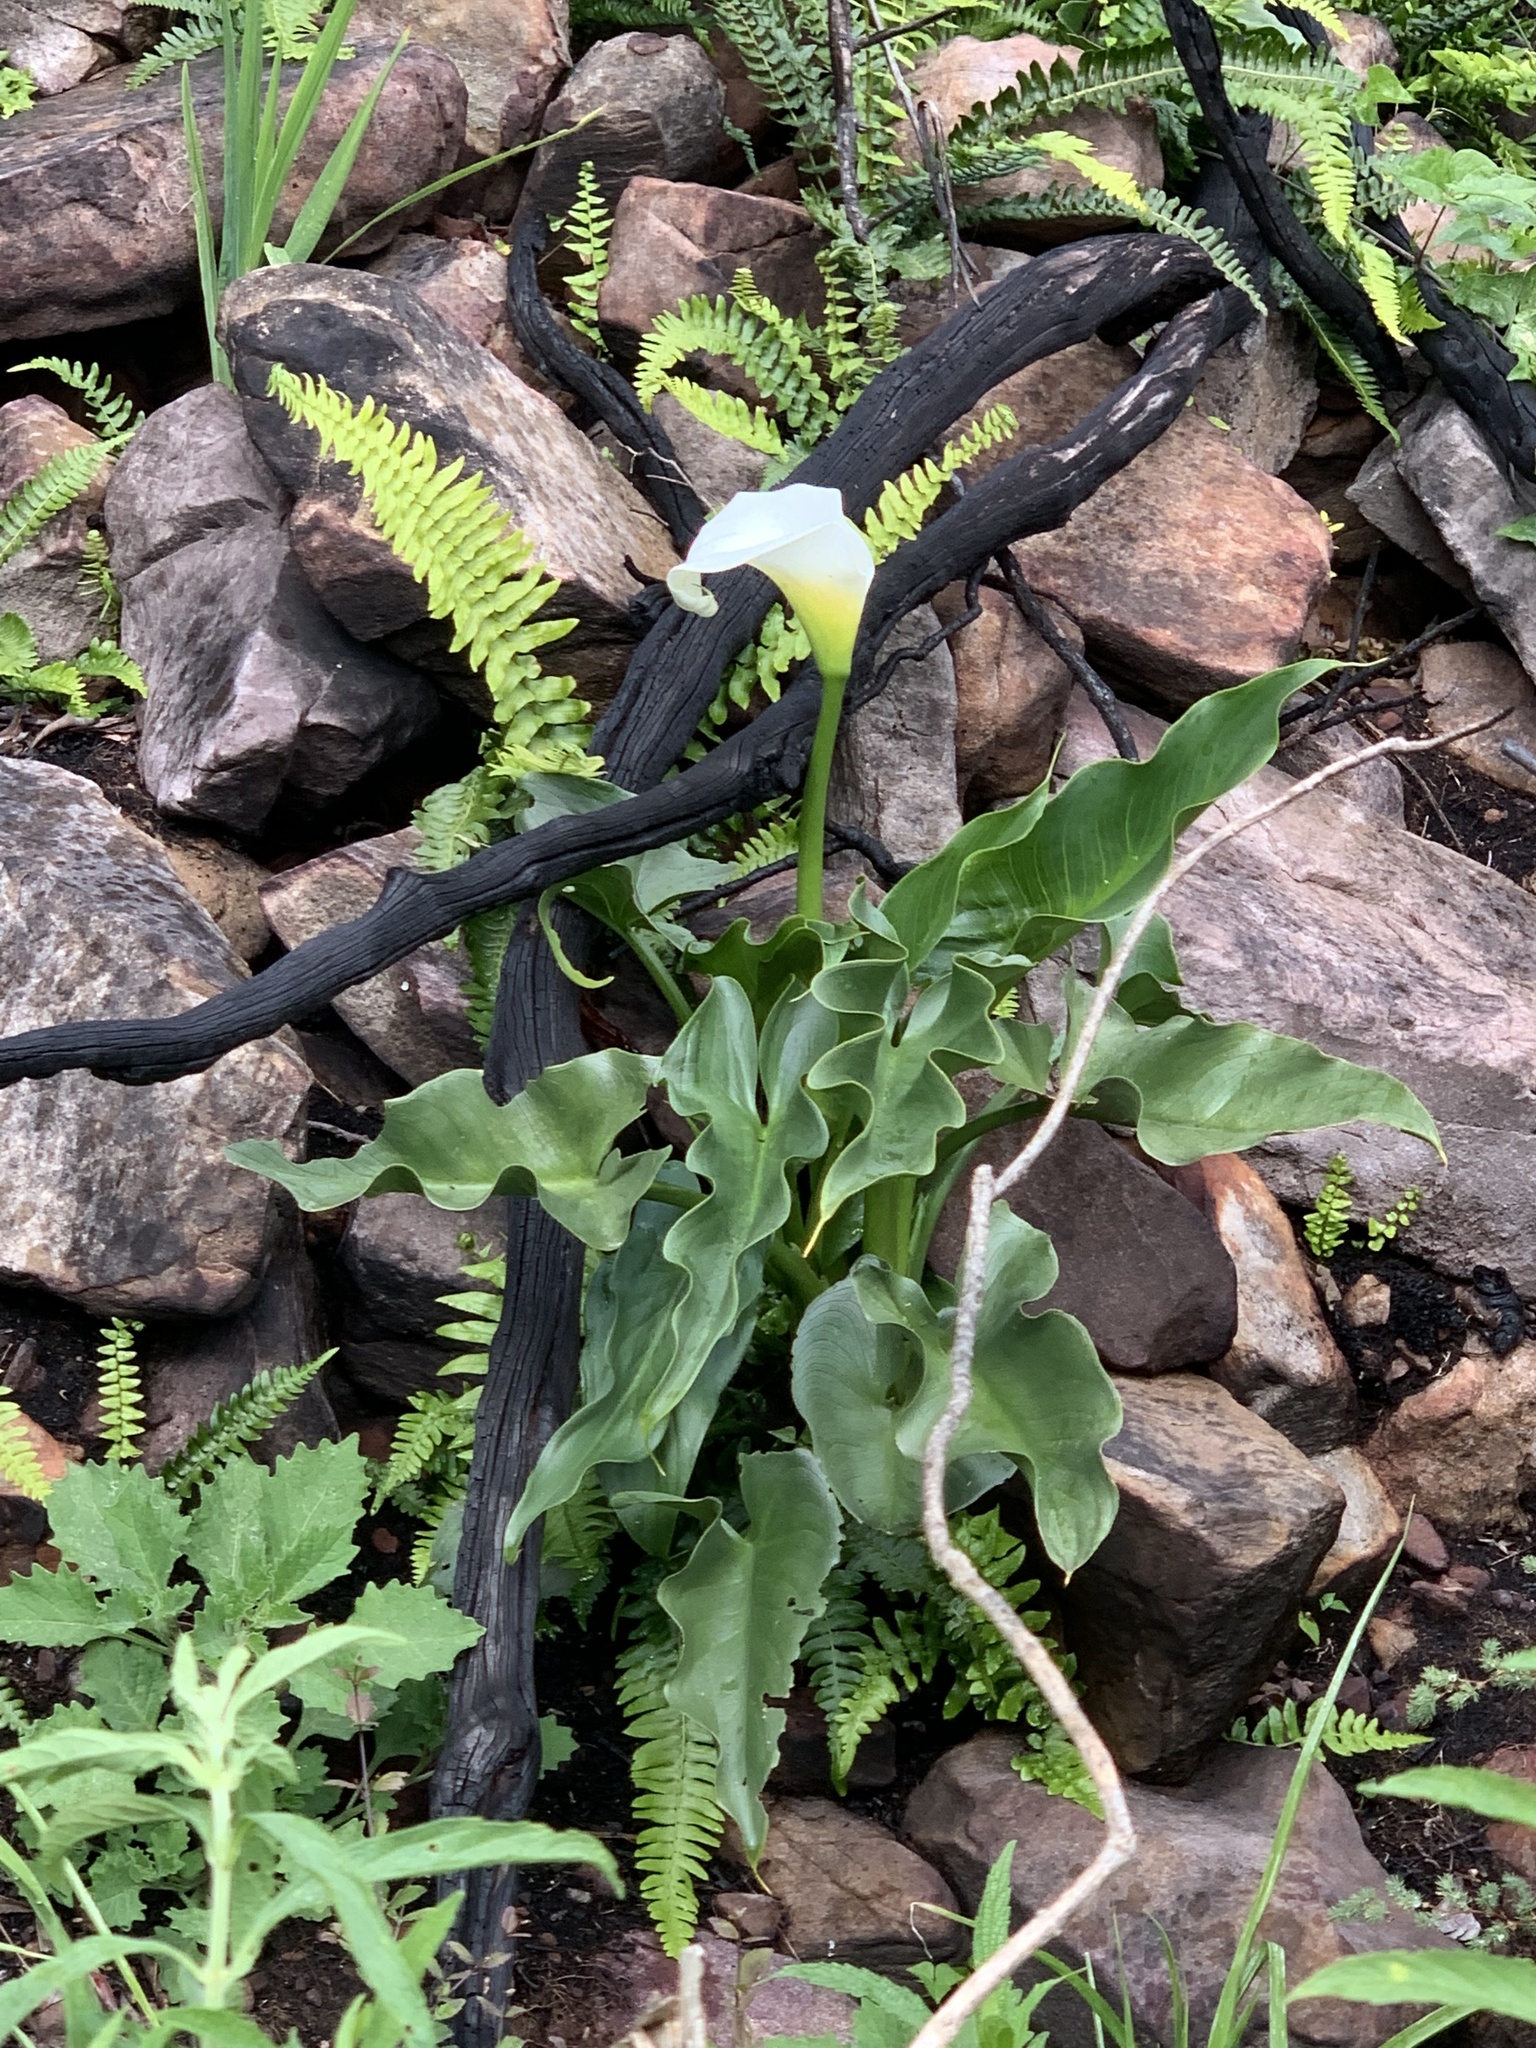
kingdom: Plantae
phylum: Tracheophyta
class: Liliopsida
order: Alismatales
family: Araceae
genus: Zantedeschia
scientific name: Zantedeschia aethiopica
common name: Altar-lily
